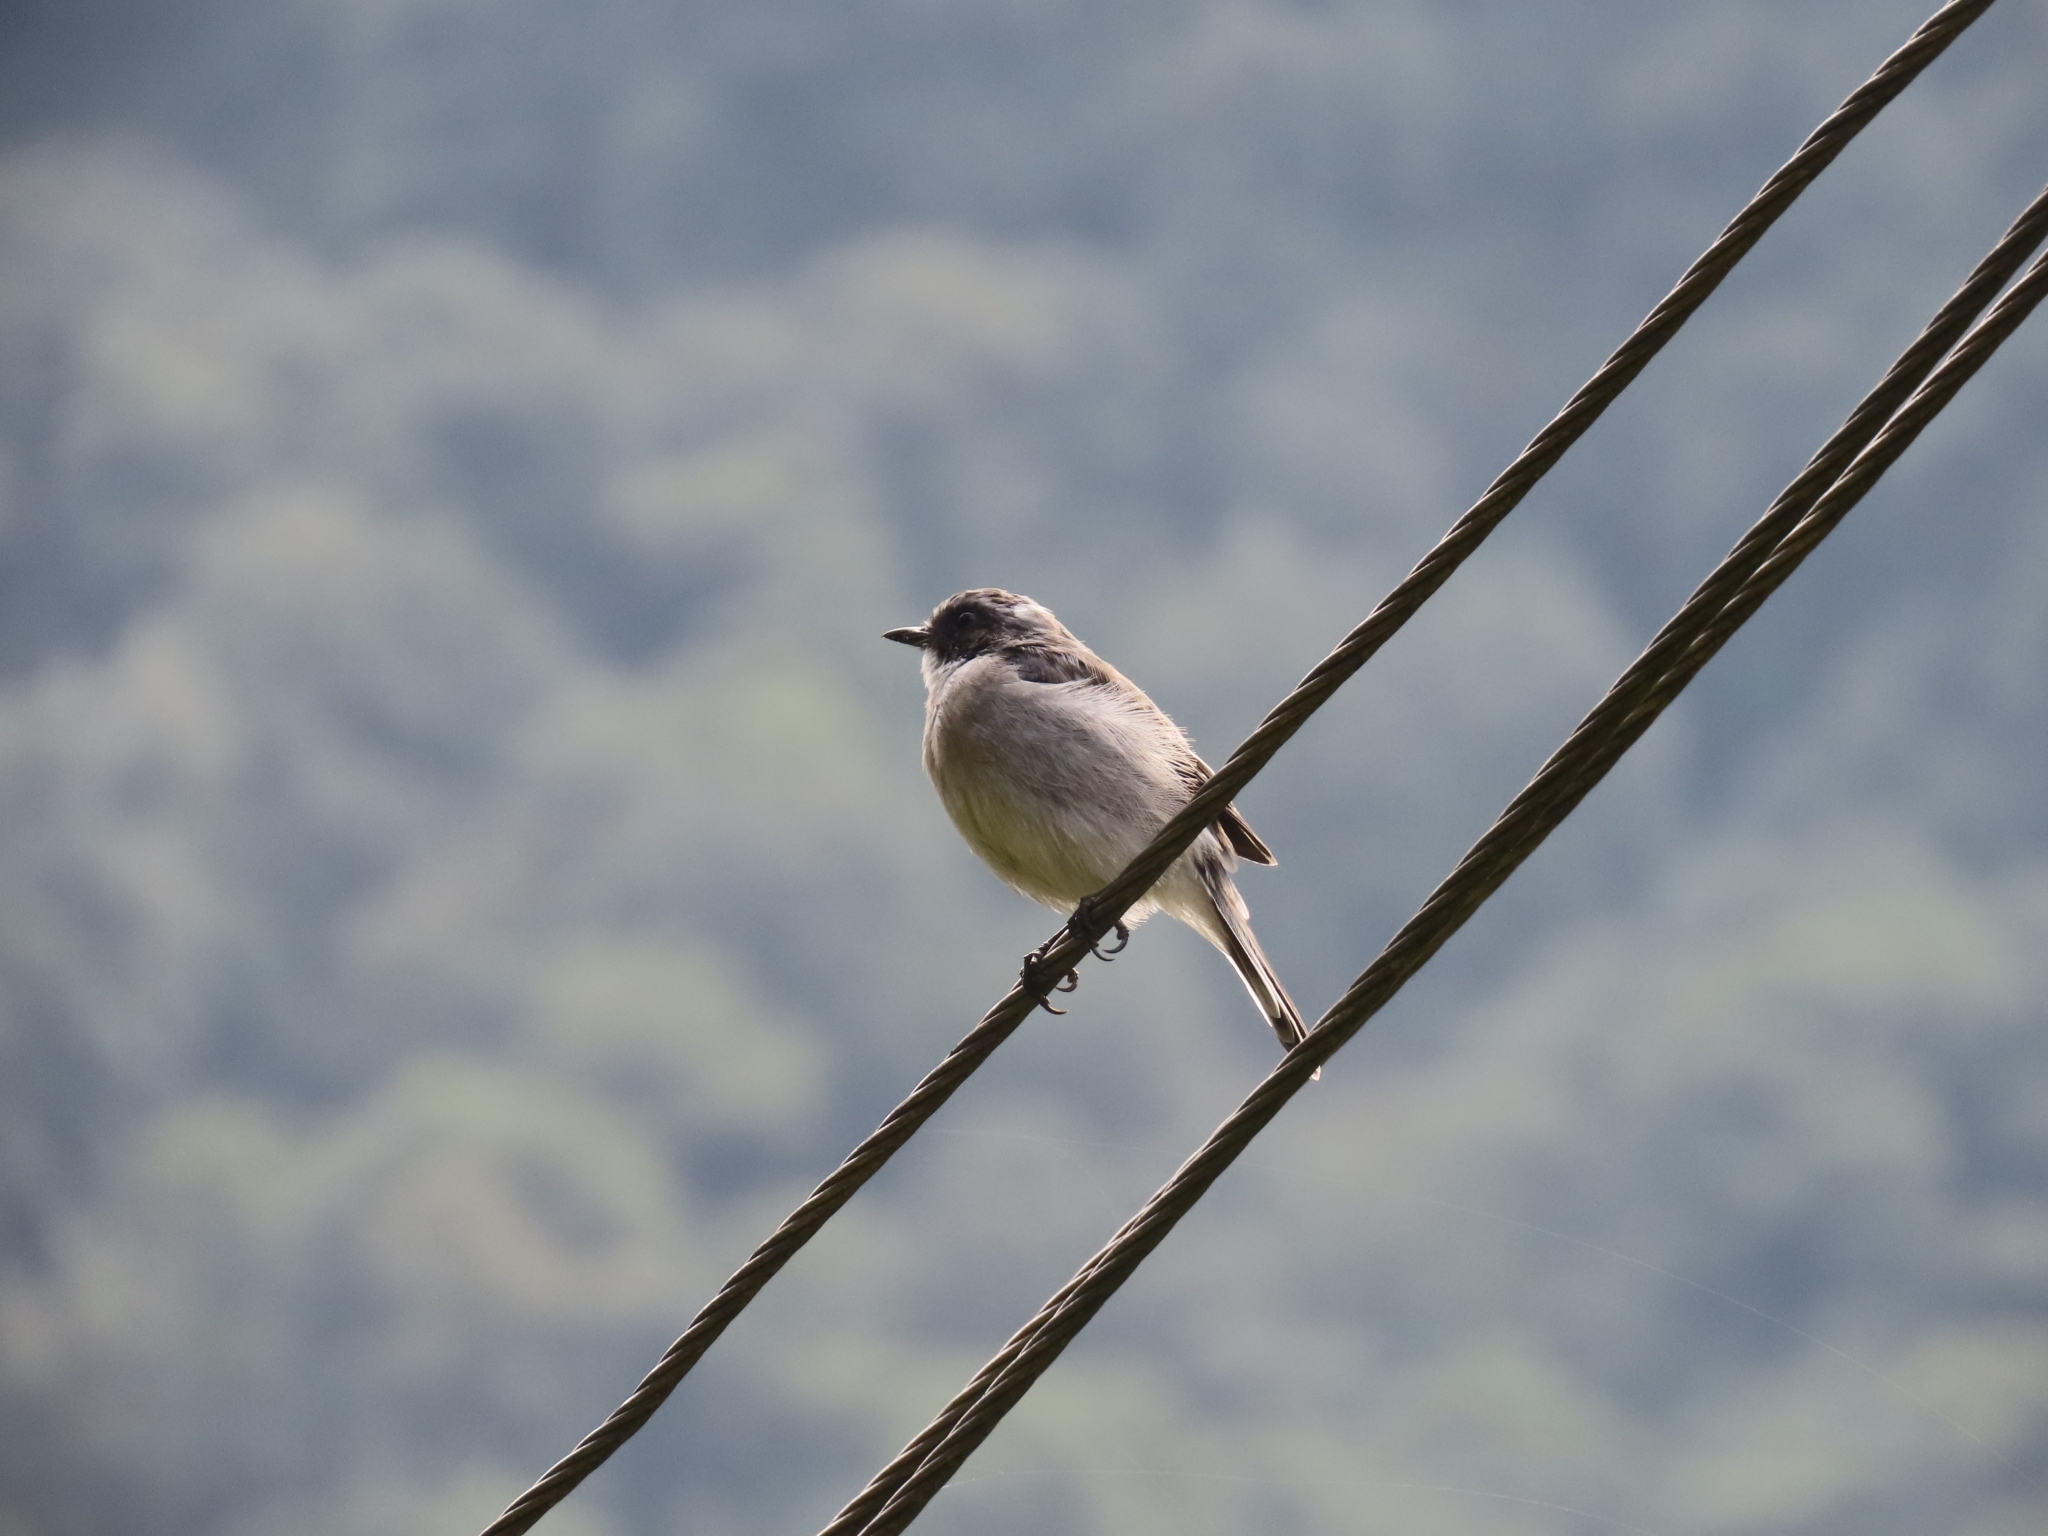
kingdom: Animalia
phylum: Chordata
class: Aves
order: Passeriformes
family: Muscicapidae
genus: Saxicola
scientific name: Saxicola ferreus
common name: Grey bush chat
